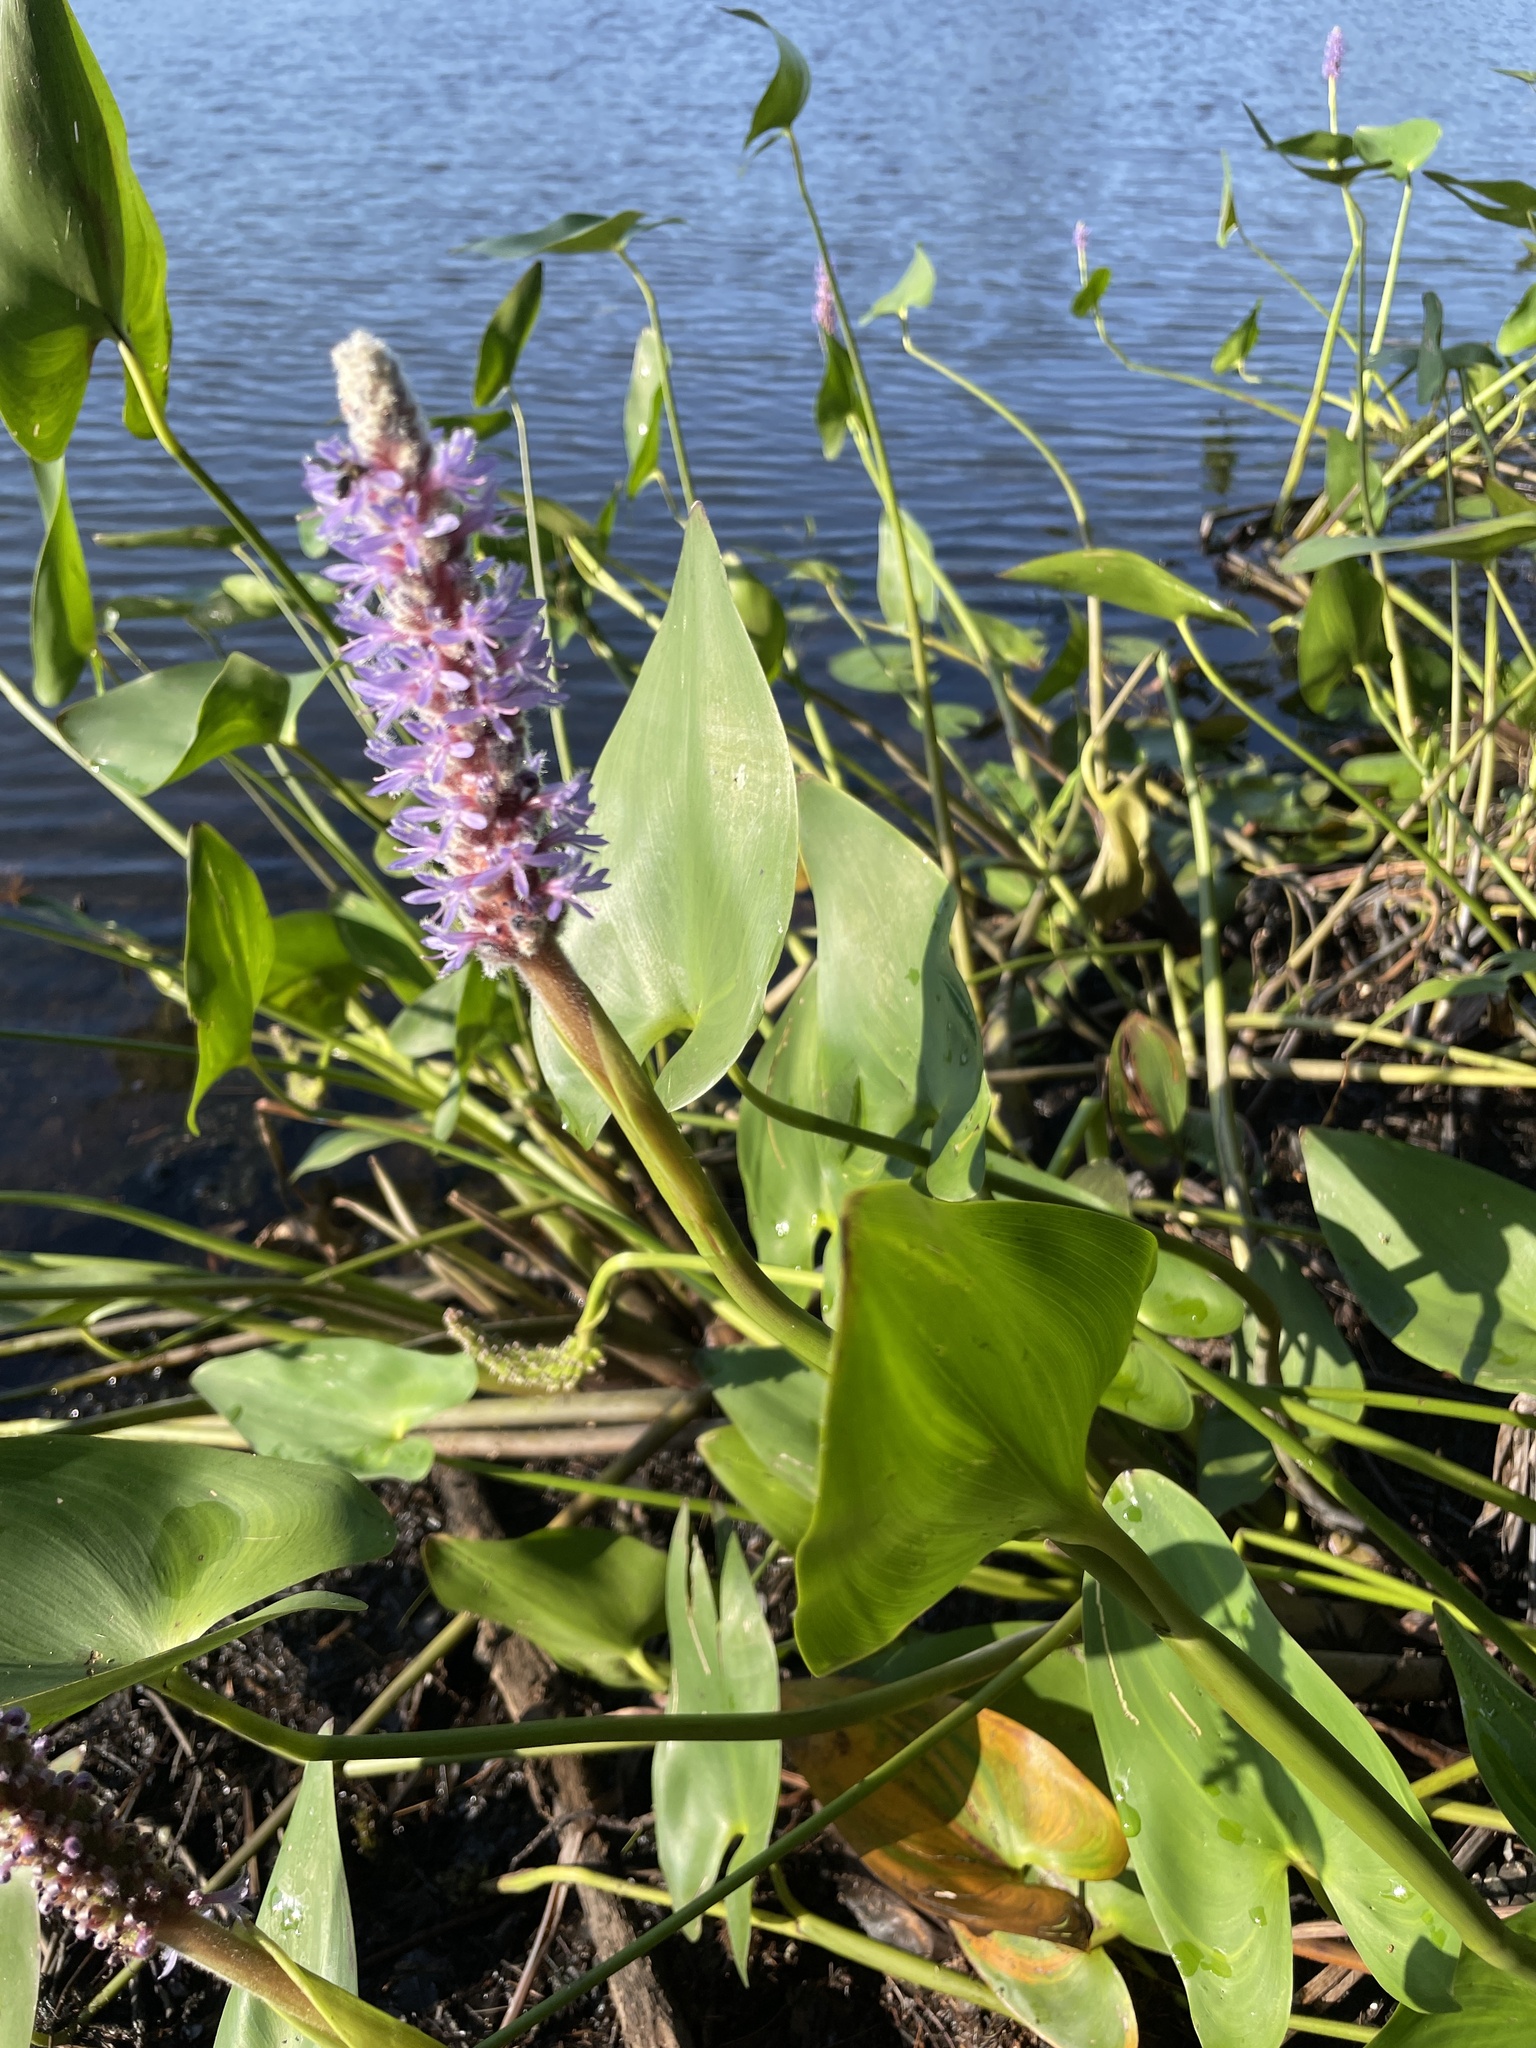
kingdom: Plantae
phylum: Tracheophyta
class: Liliopsida
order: Commelinales
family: Pontederiaceae
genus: Pontederia
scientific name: Pontederia cordata
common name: Pickerelweed
